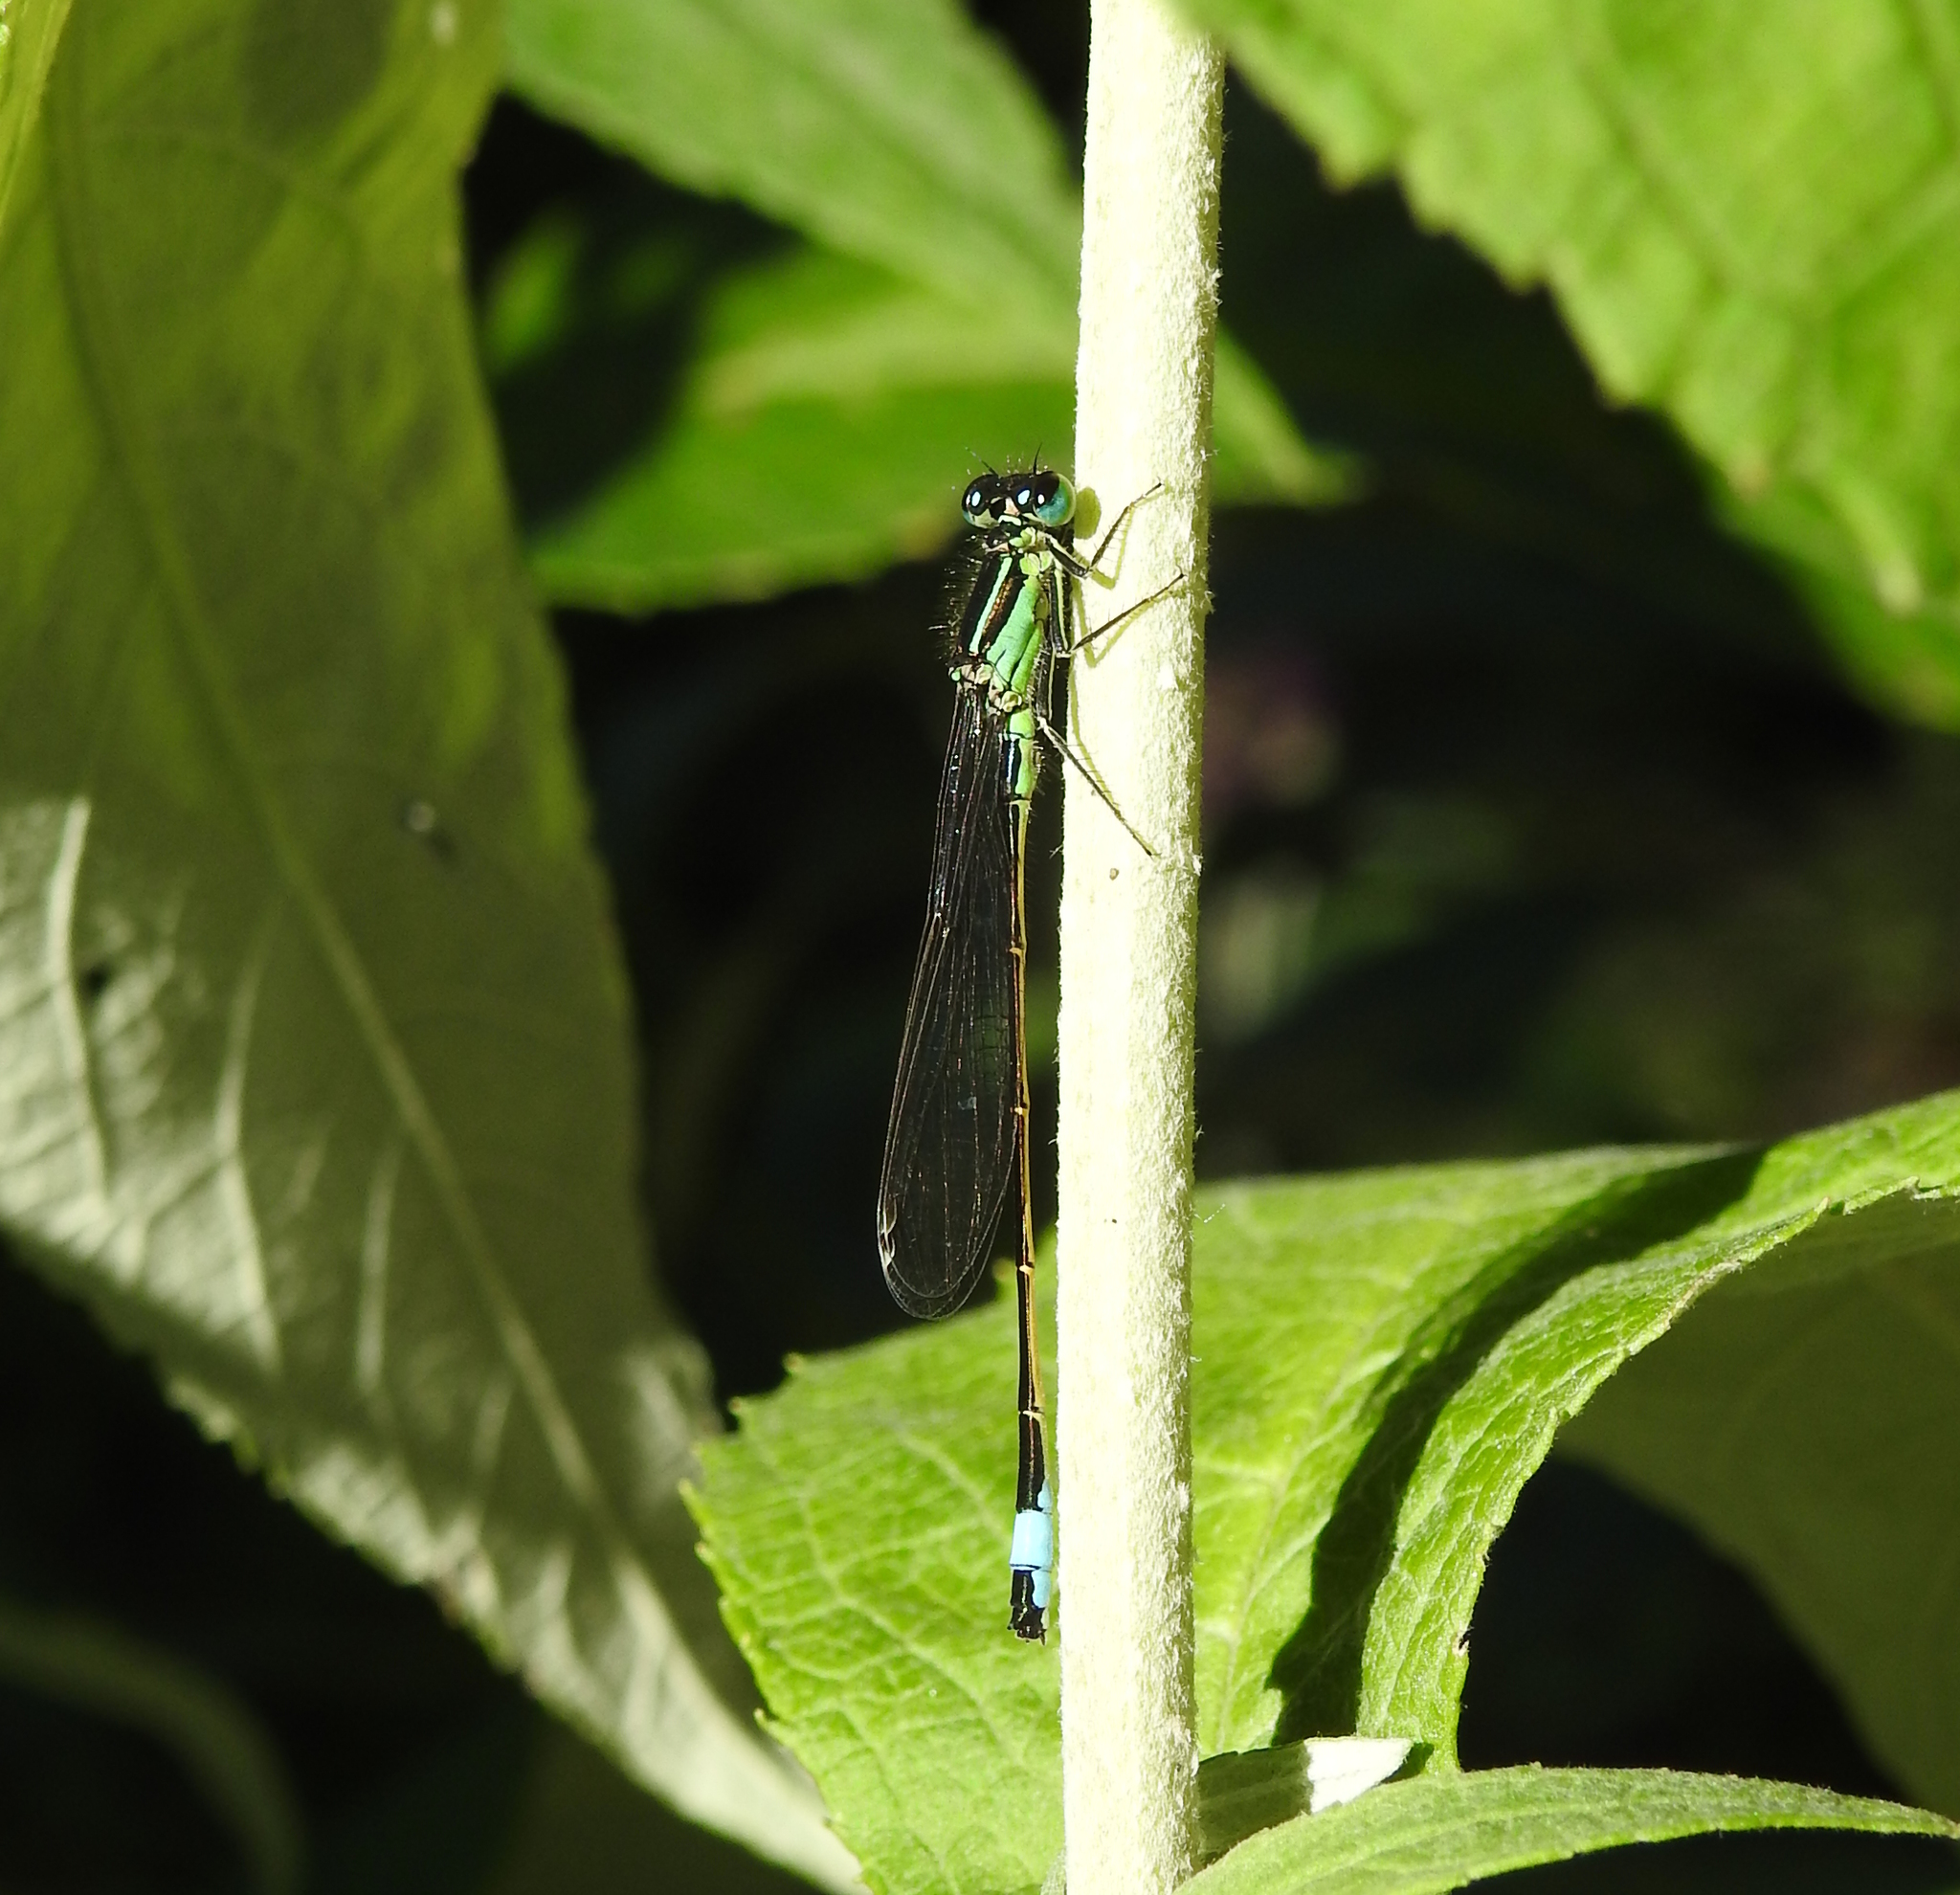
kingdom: Animalia
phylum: Arthropoda
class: Insecta
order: Odonata
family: Coenagrionidae
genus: Ischnura
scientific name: Ischnura elegans
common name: Blue-tailed damselfly
